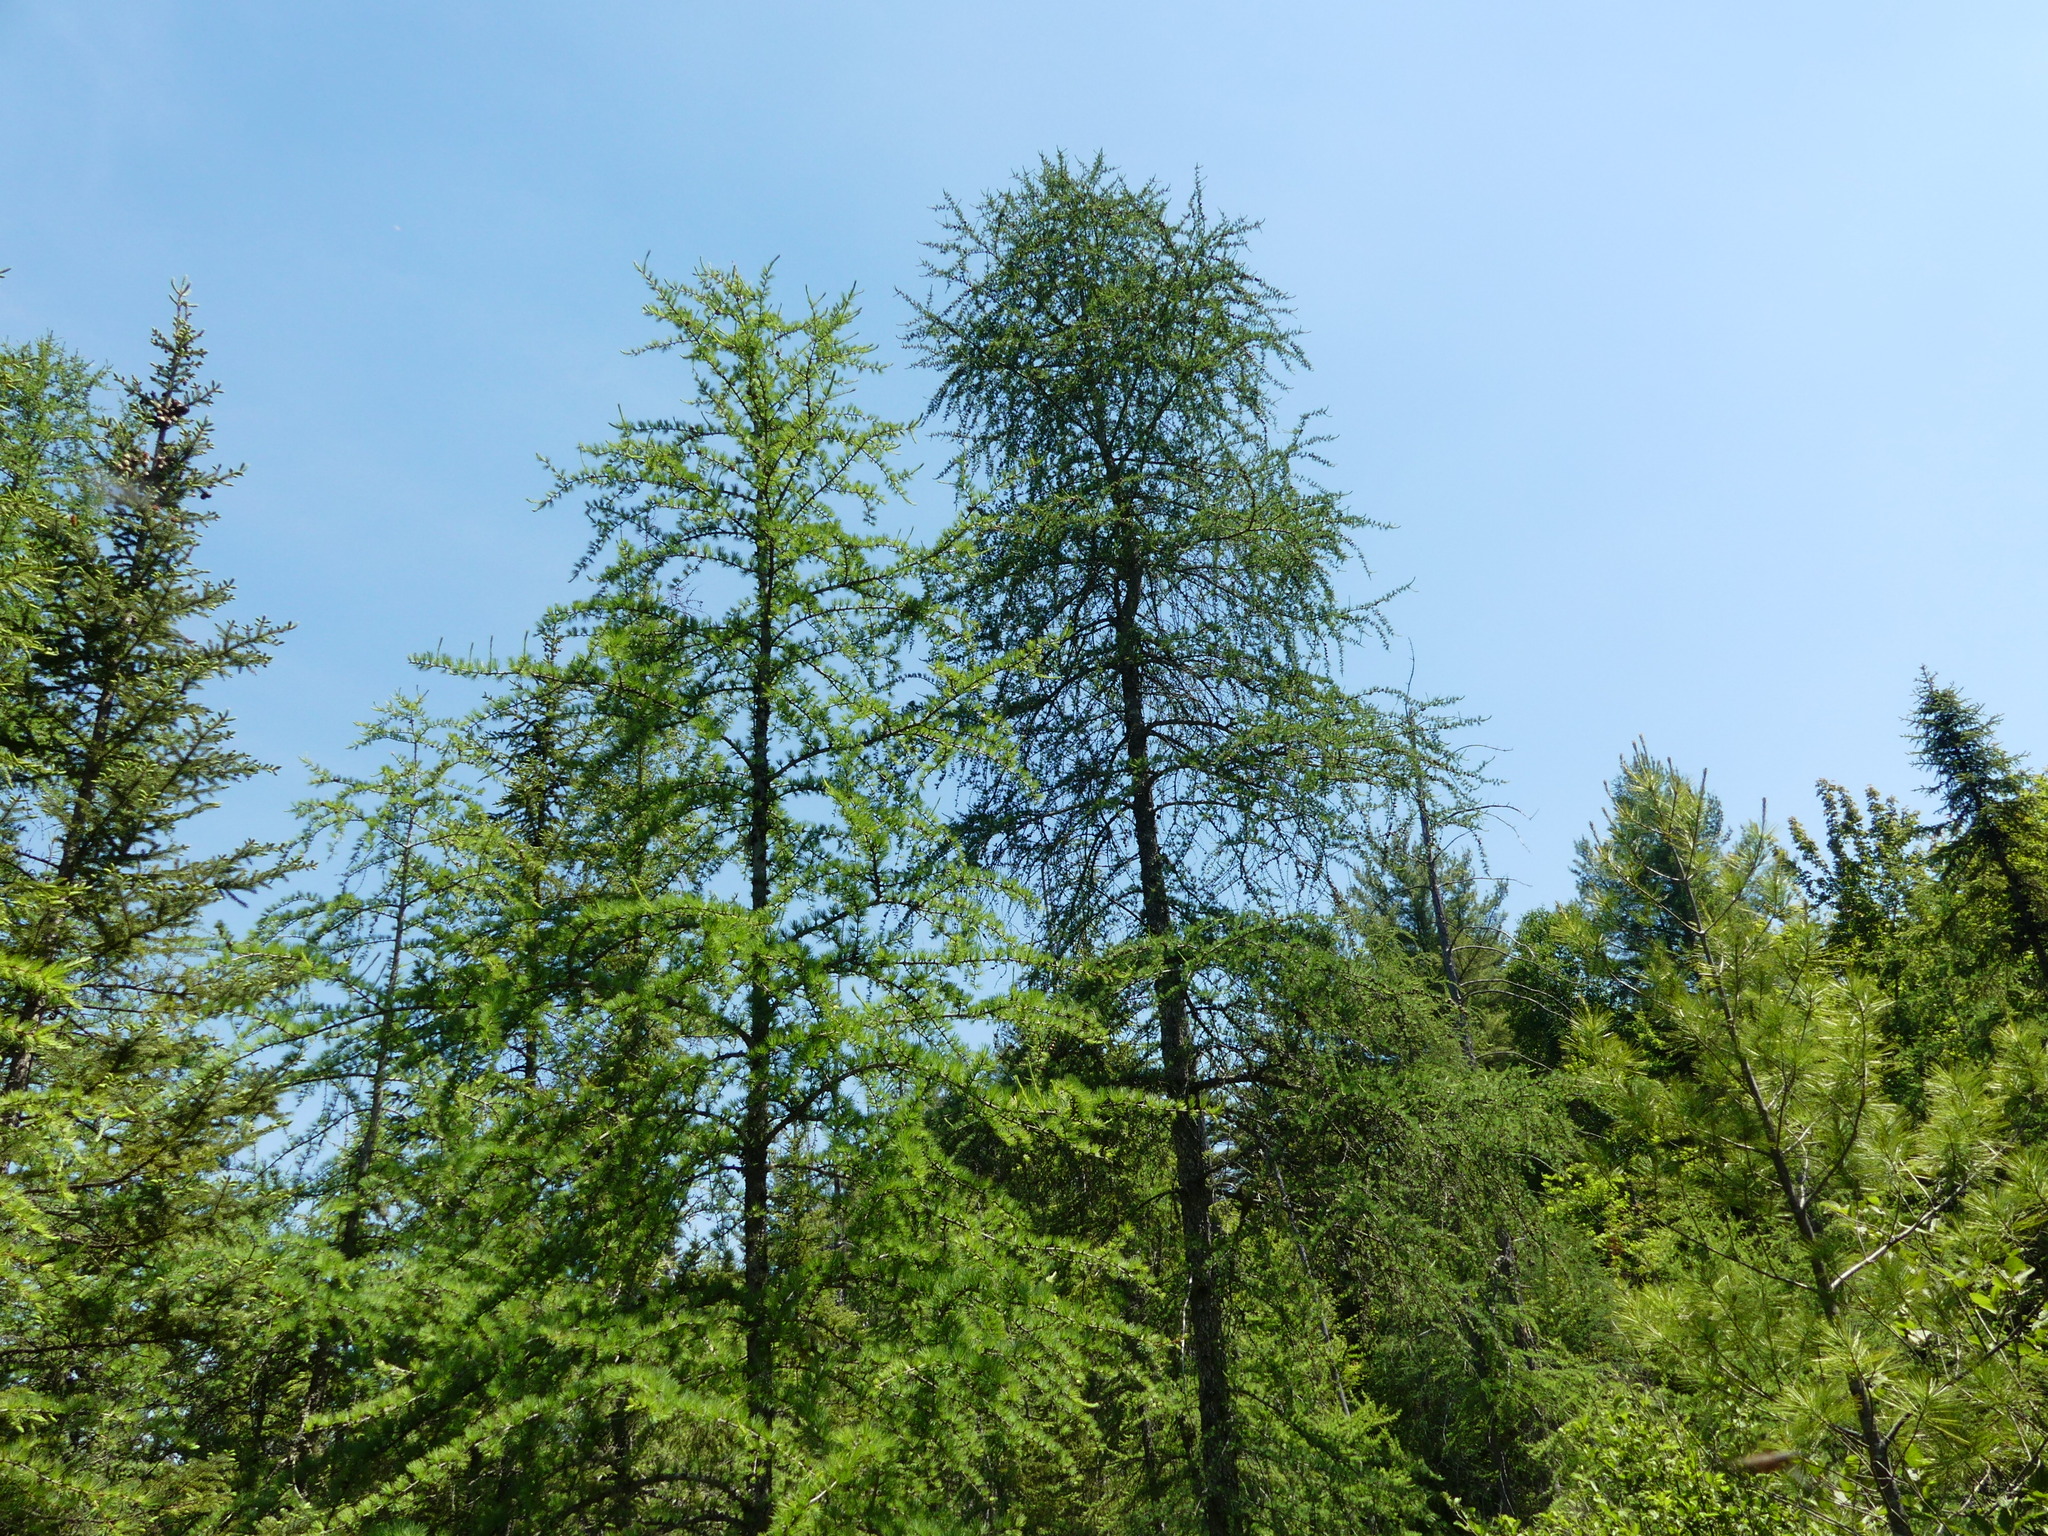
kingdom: Plantae
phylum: Tracheophyta
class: Pinopsida
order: Pinales
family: Pinaceae
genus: Larix
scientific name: Larix laricina
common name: American larch
